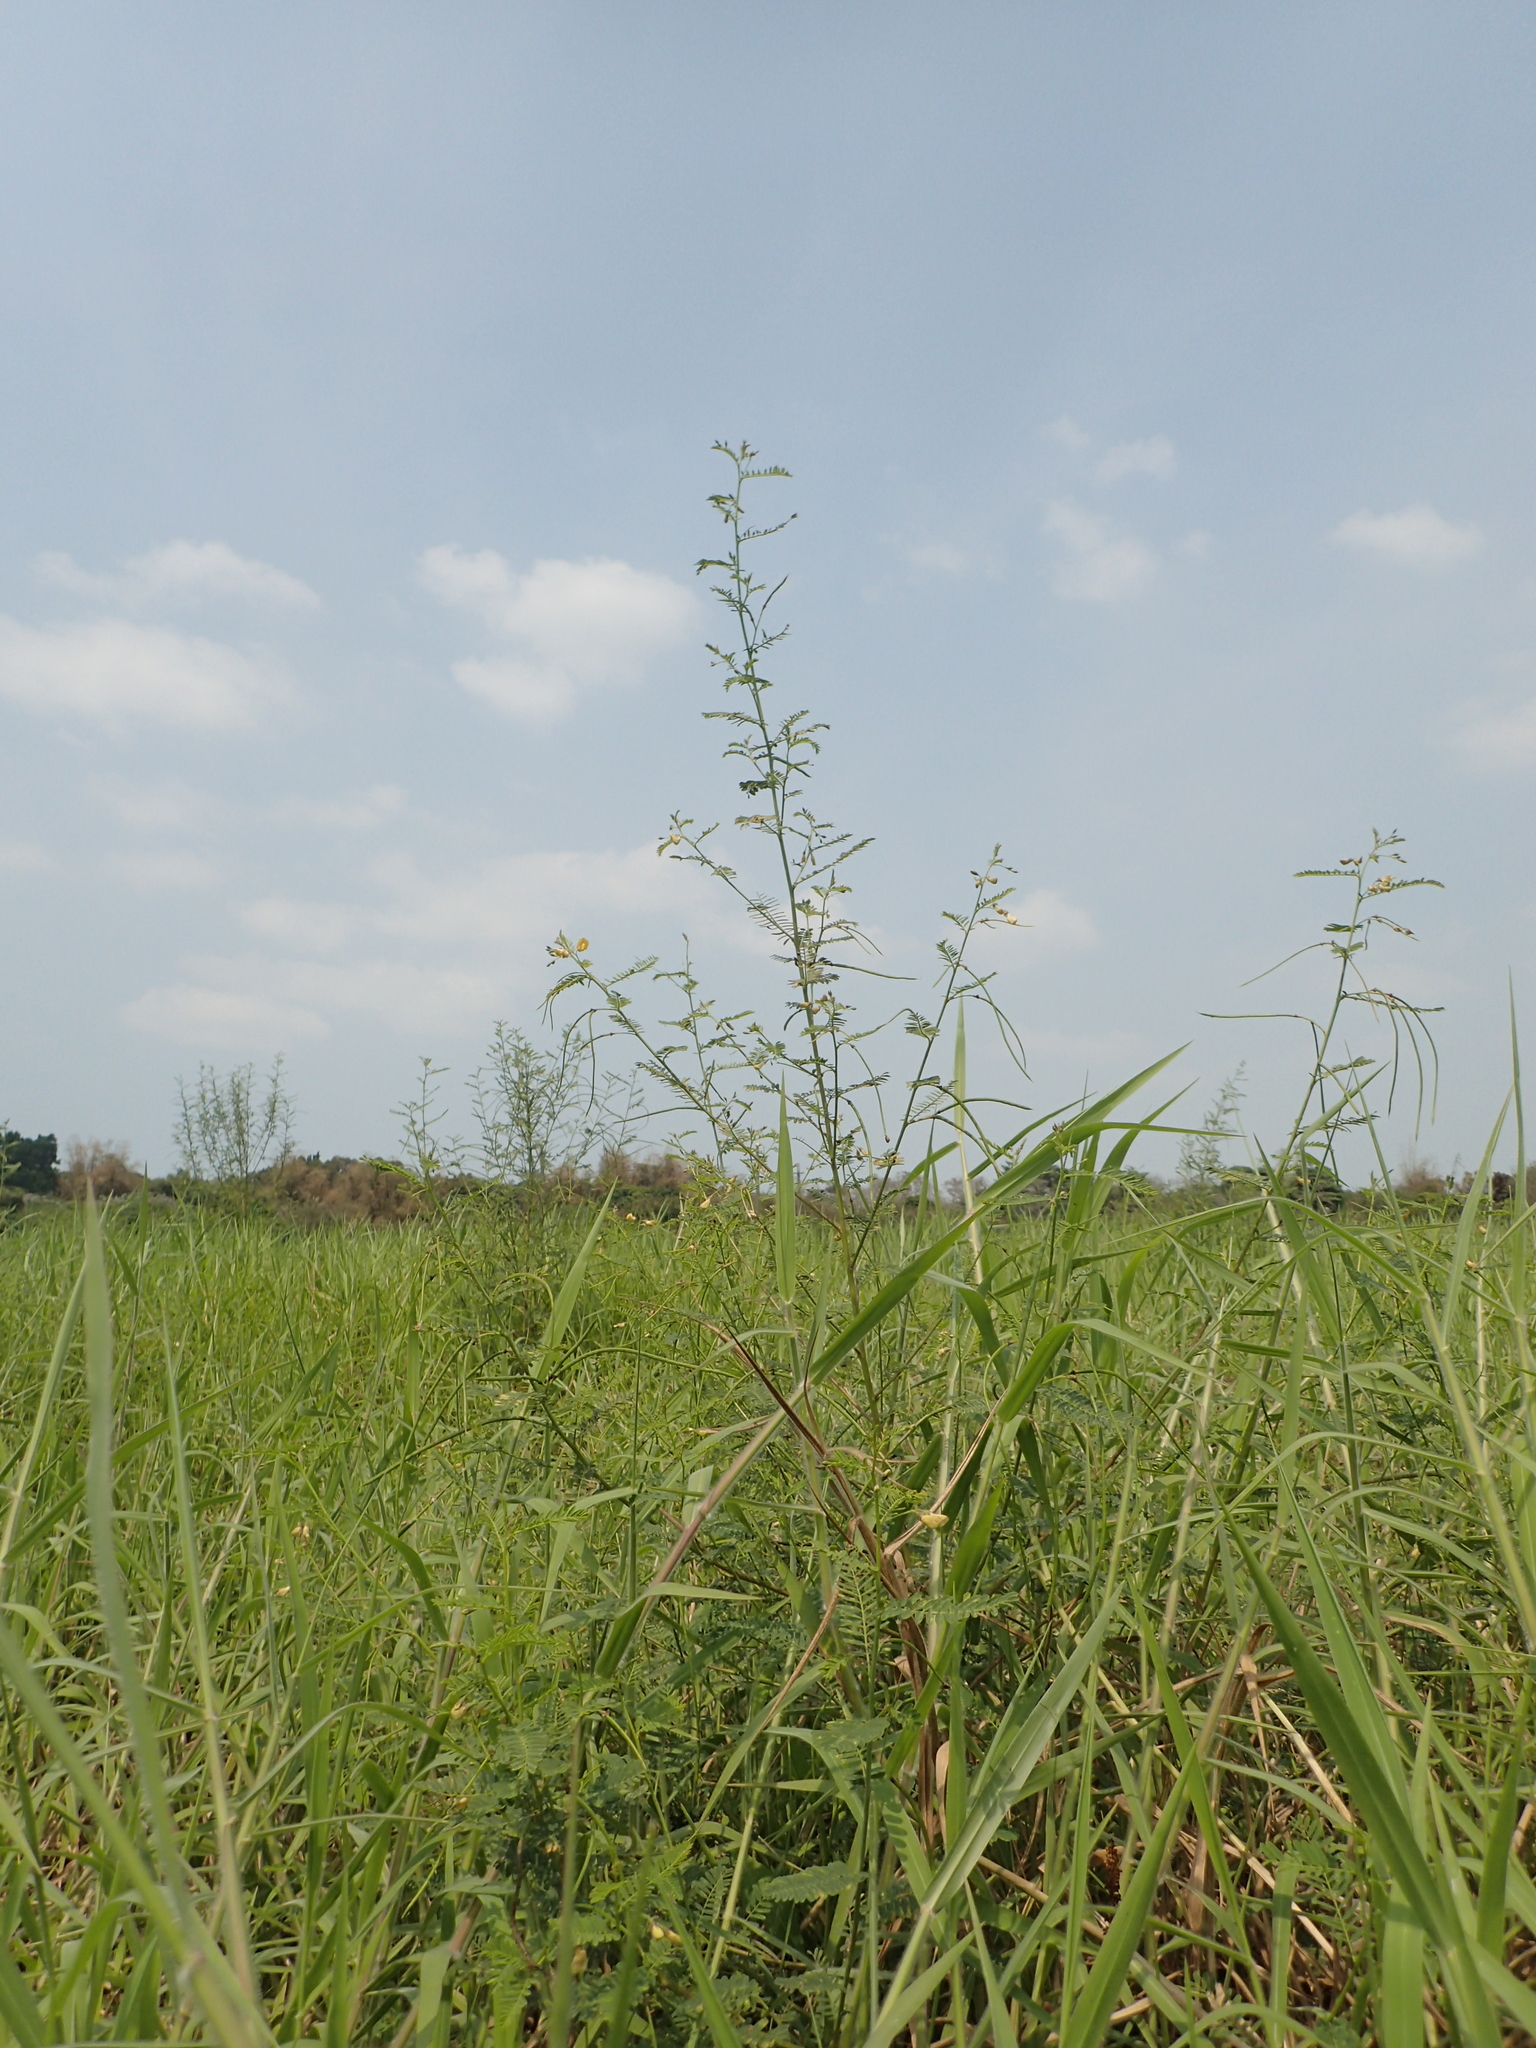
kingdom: Plantae
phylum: Tracheophyta
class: Magnoliopsida
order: Fabales
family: Fabaceae
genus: Sesbania
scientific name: Sesbania cannabina
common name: Canicha
